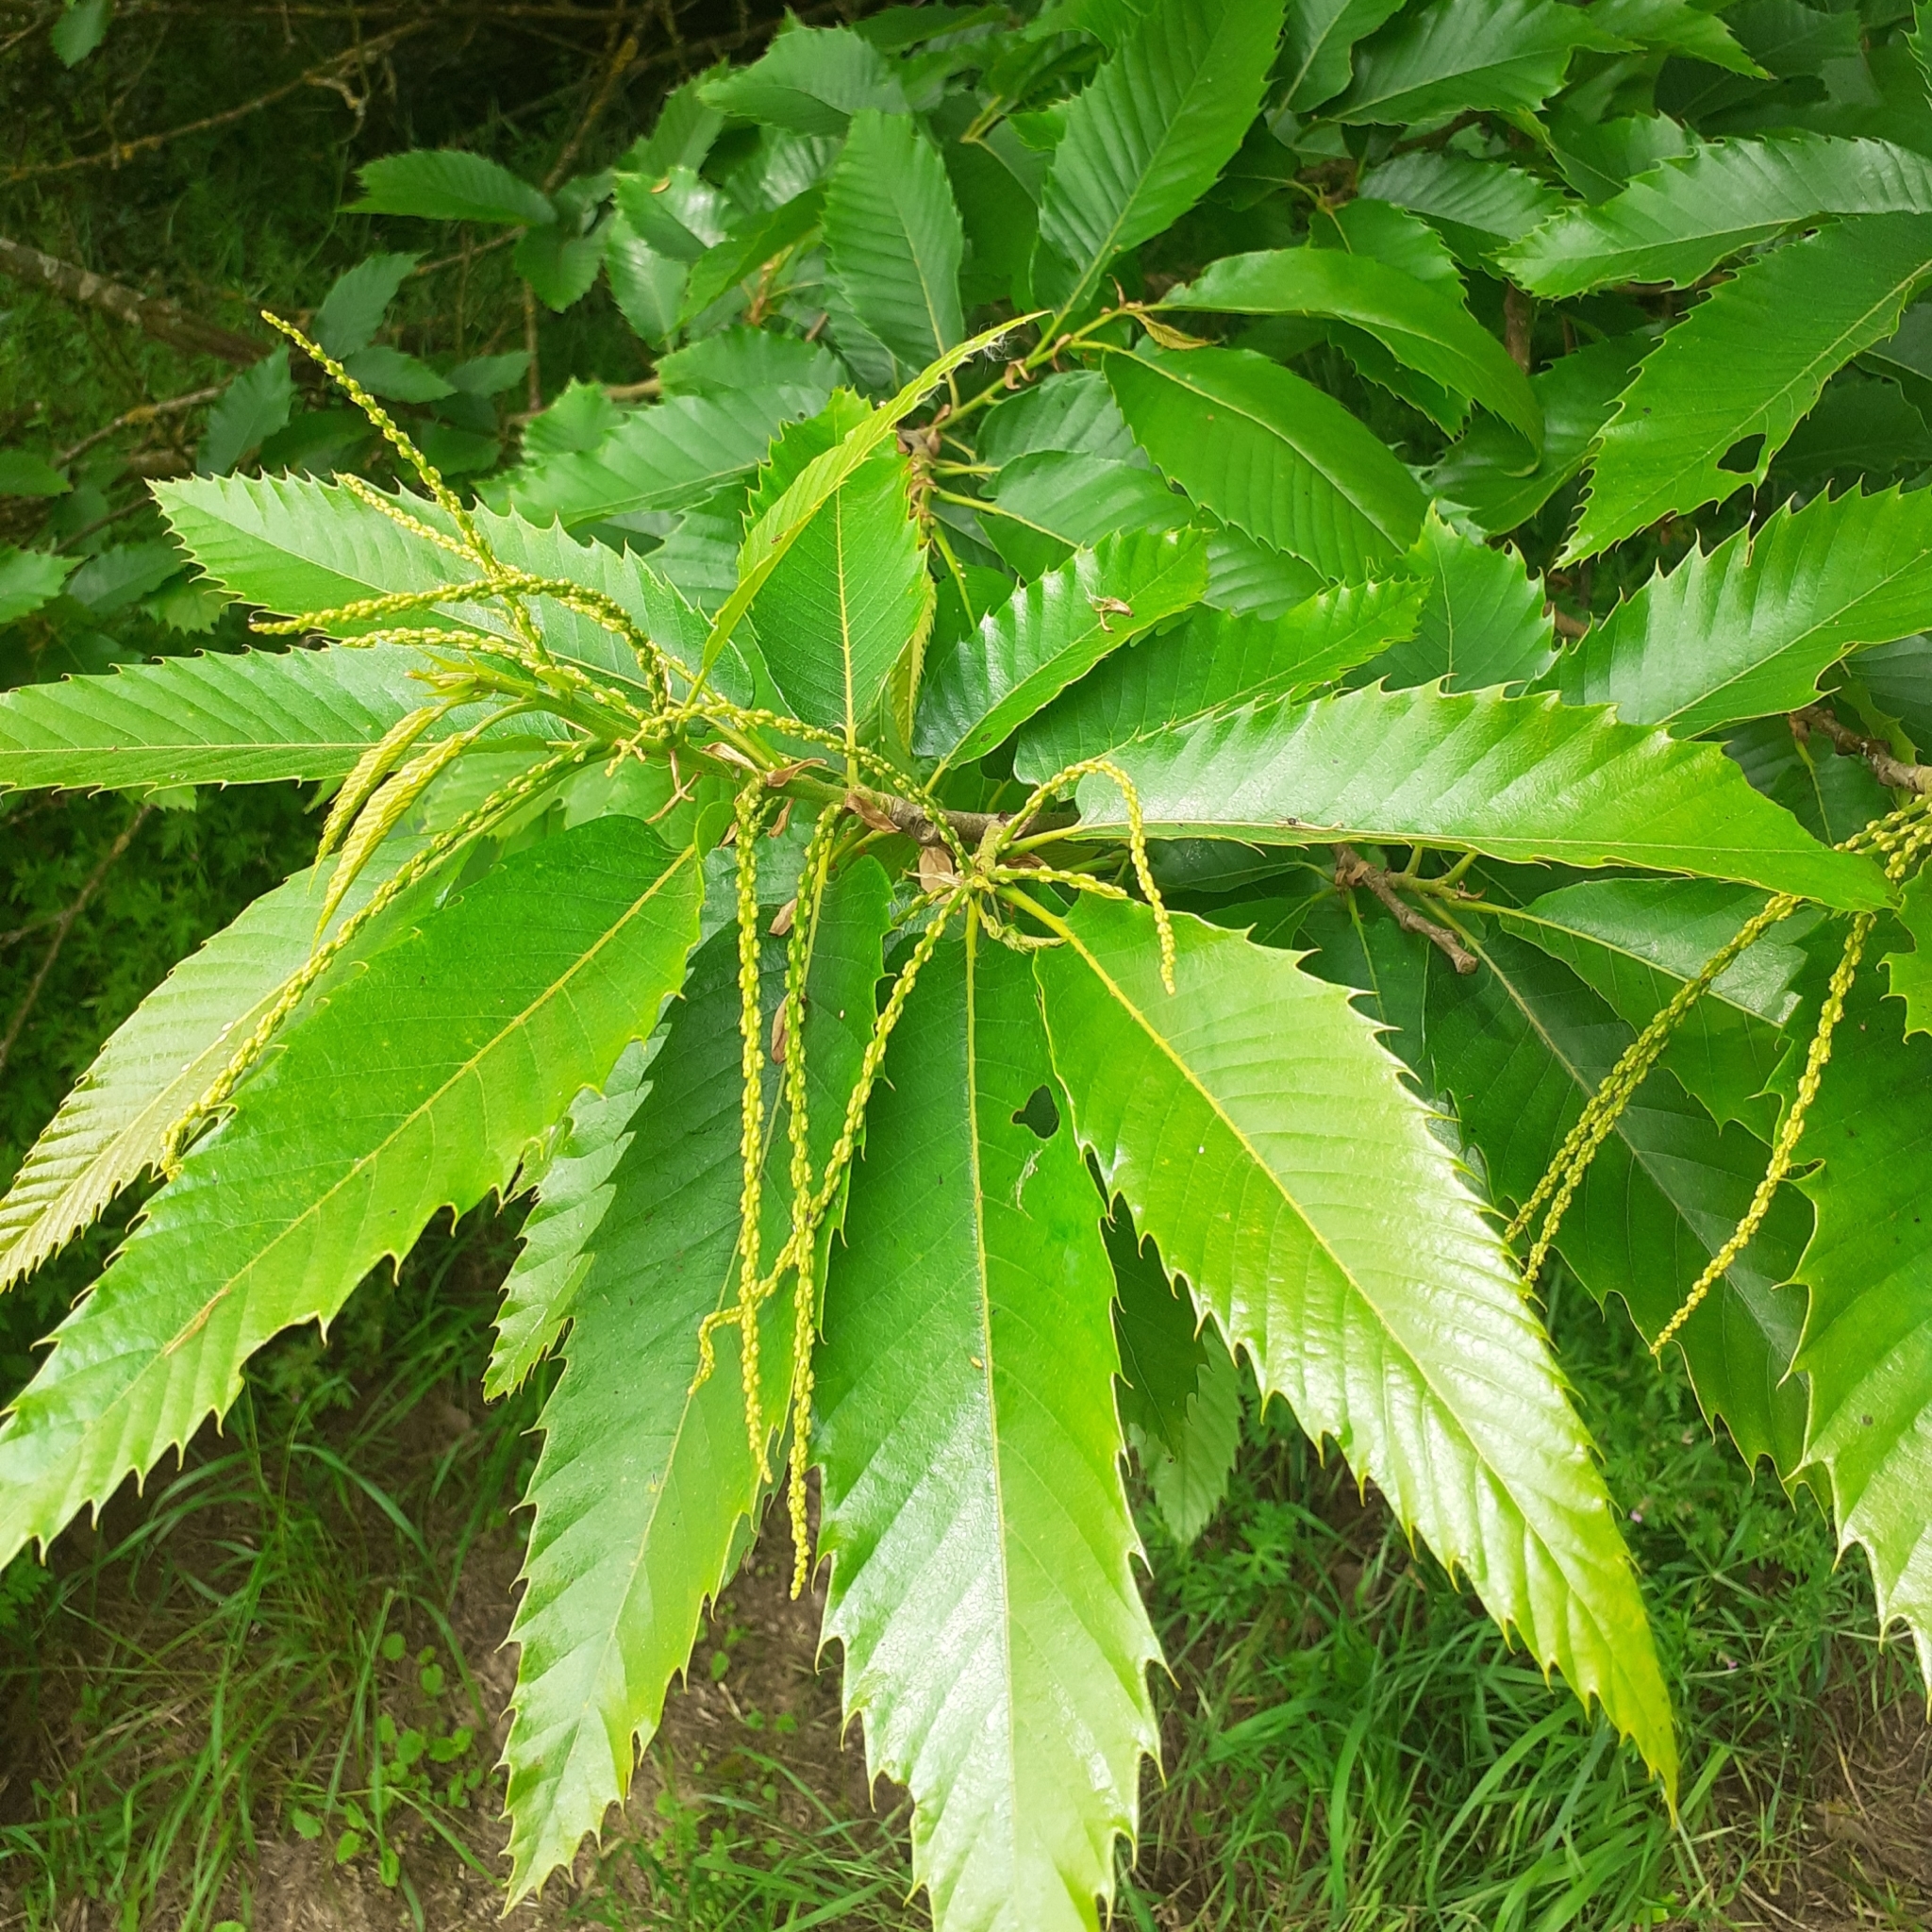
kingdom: Plantae
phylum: Tracheophyta
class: Magnoliopsida
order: Fagales
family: Fagaceae
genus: Castanea
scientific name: Castanea sativa
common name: Sweet chestnut
